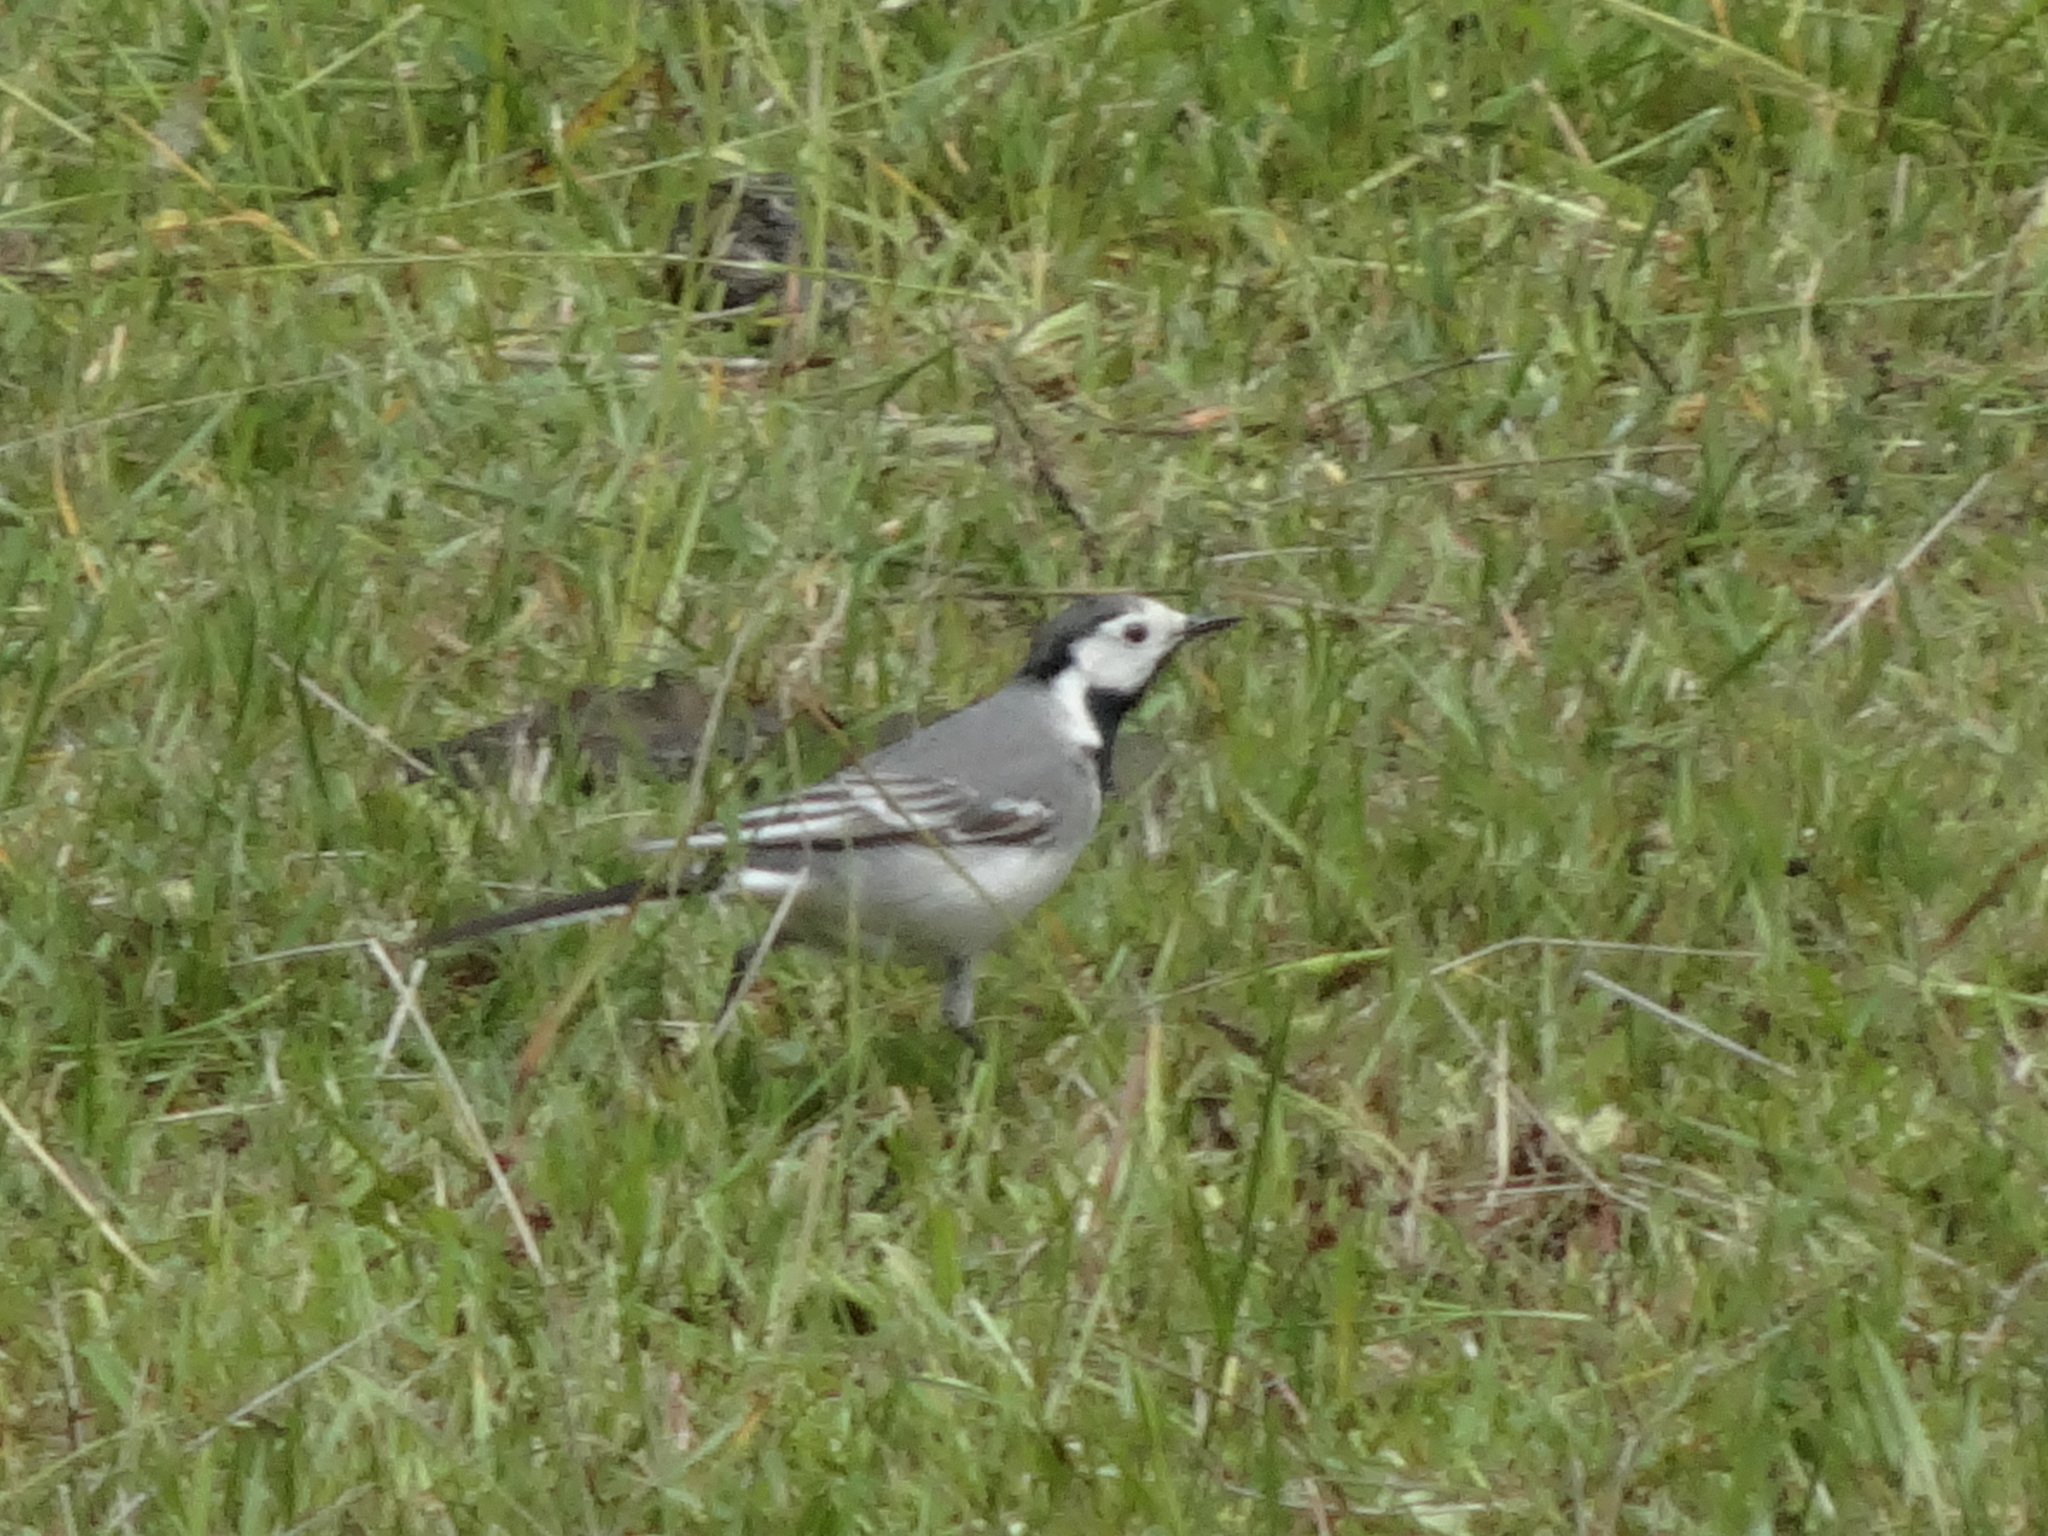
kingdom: Animalia
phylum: Chordata
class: Aves
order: Passeriformes
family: Motacillidae
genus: Motacilla
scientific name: Motacilla alba
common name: White wagtail
